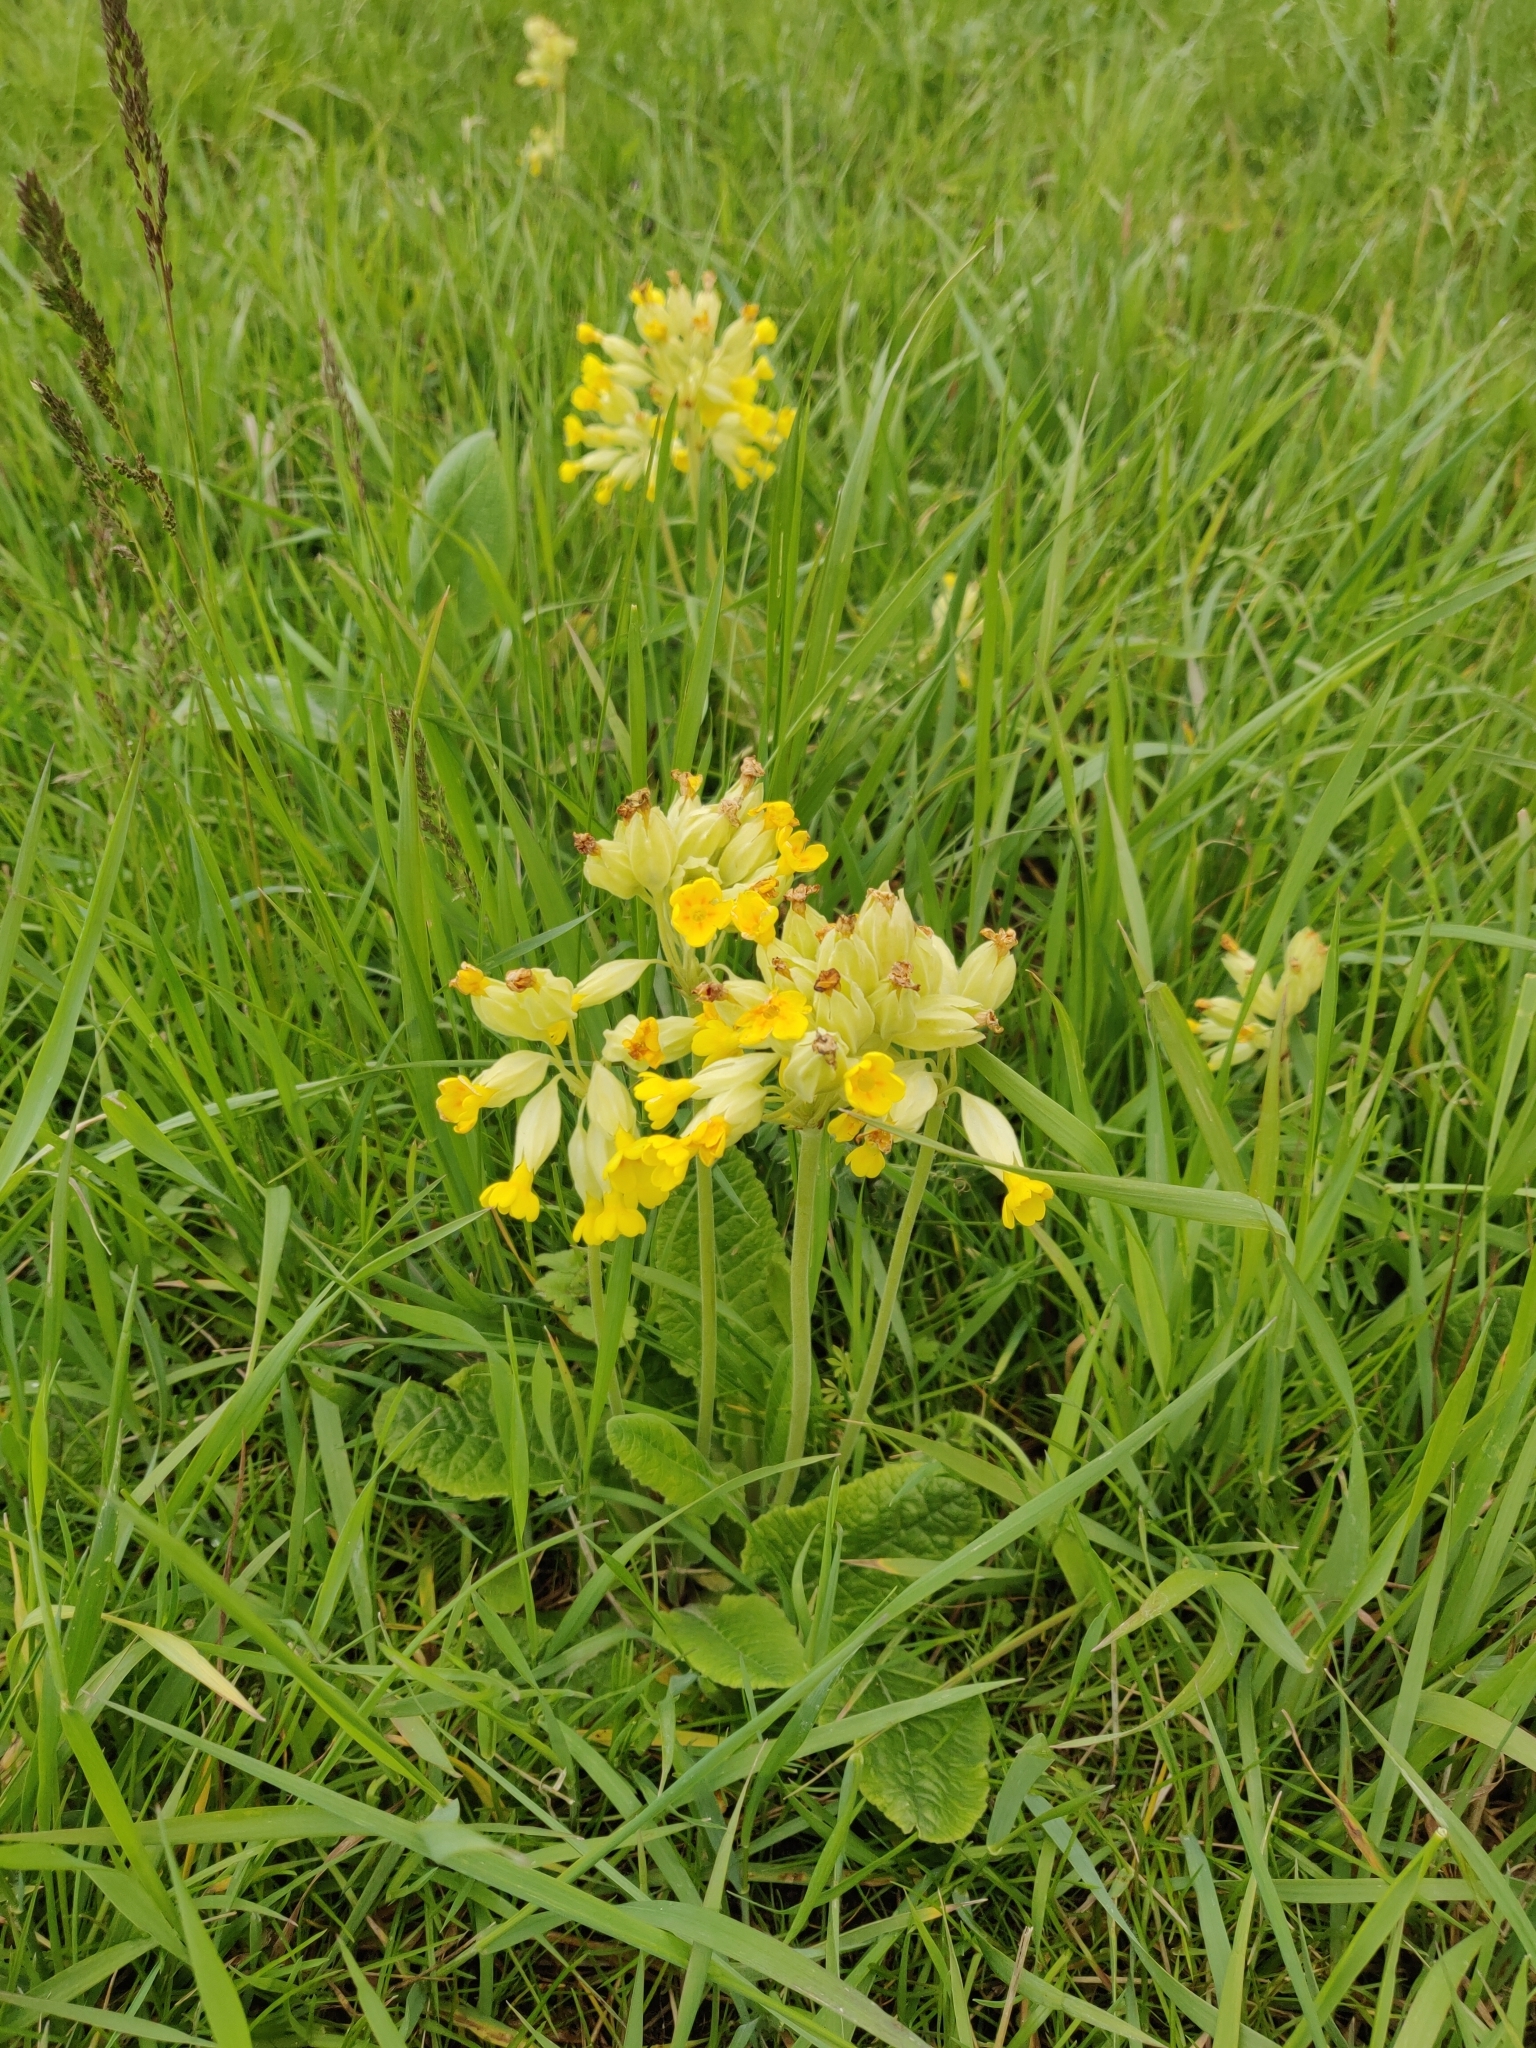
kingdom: Plantae
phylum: Tracheophyta
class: Magnoliopsida
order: Ericales
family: Primulaceae
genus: Primula
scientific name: Primula veris
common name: Cowslip
